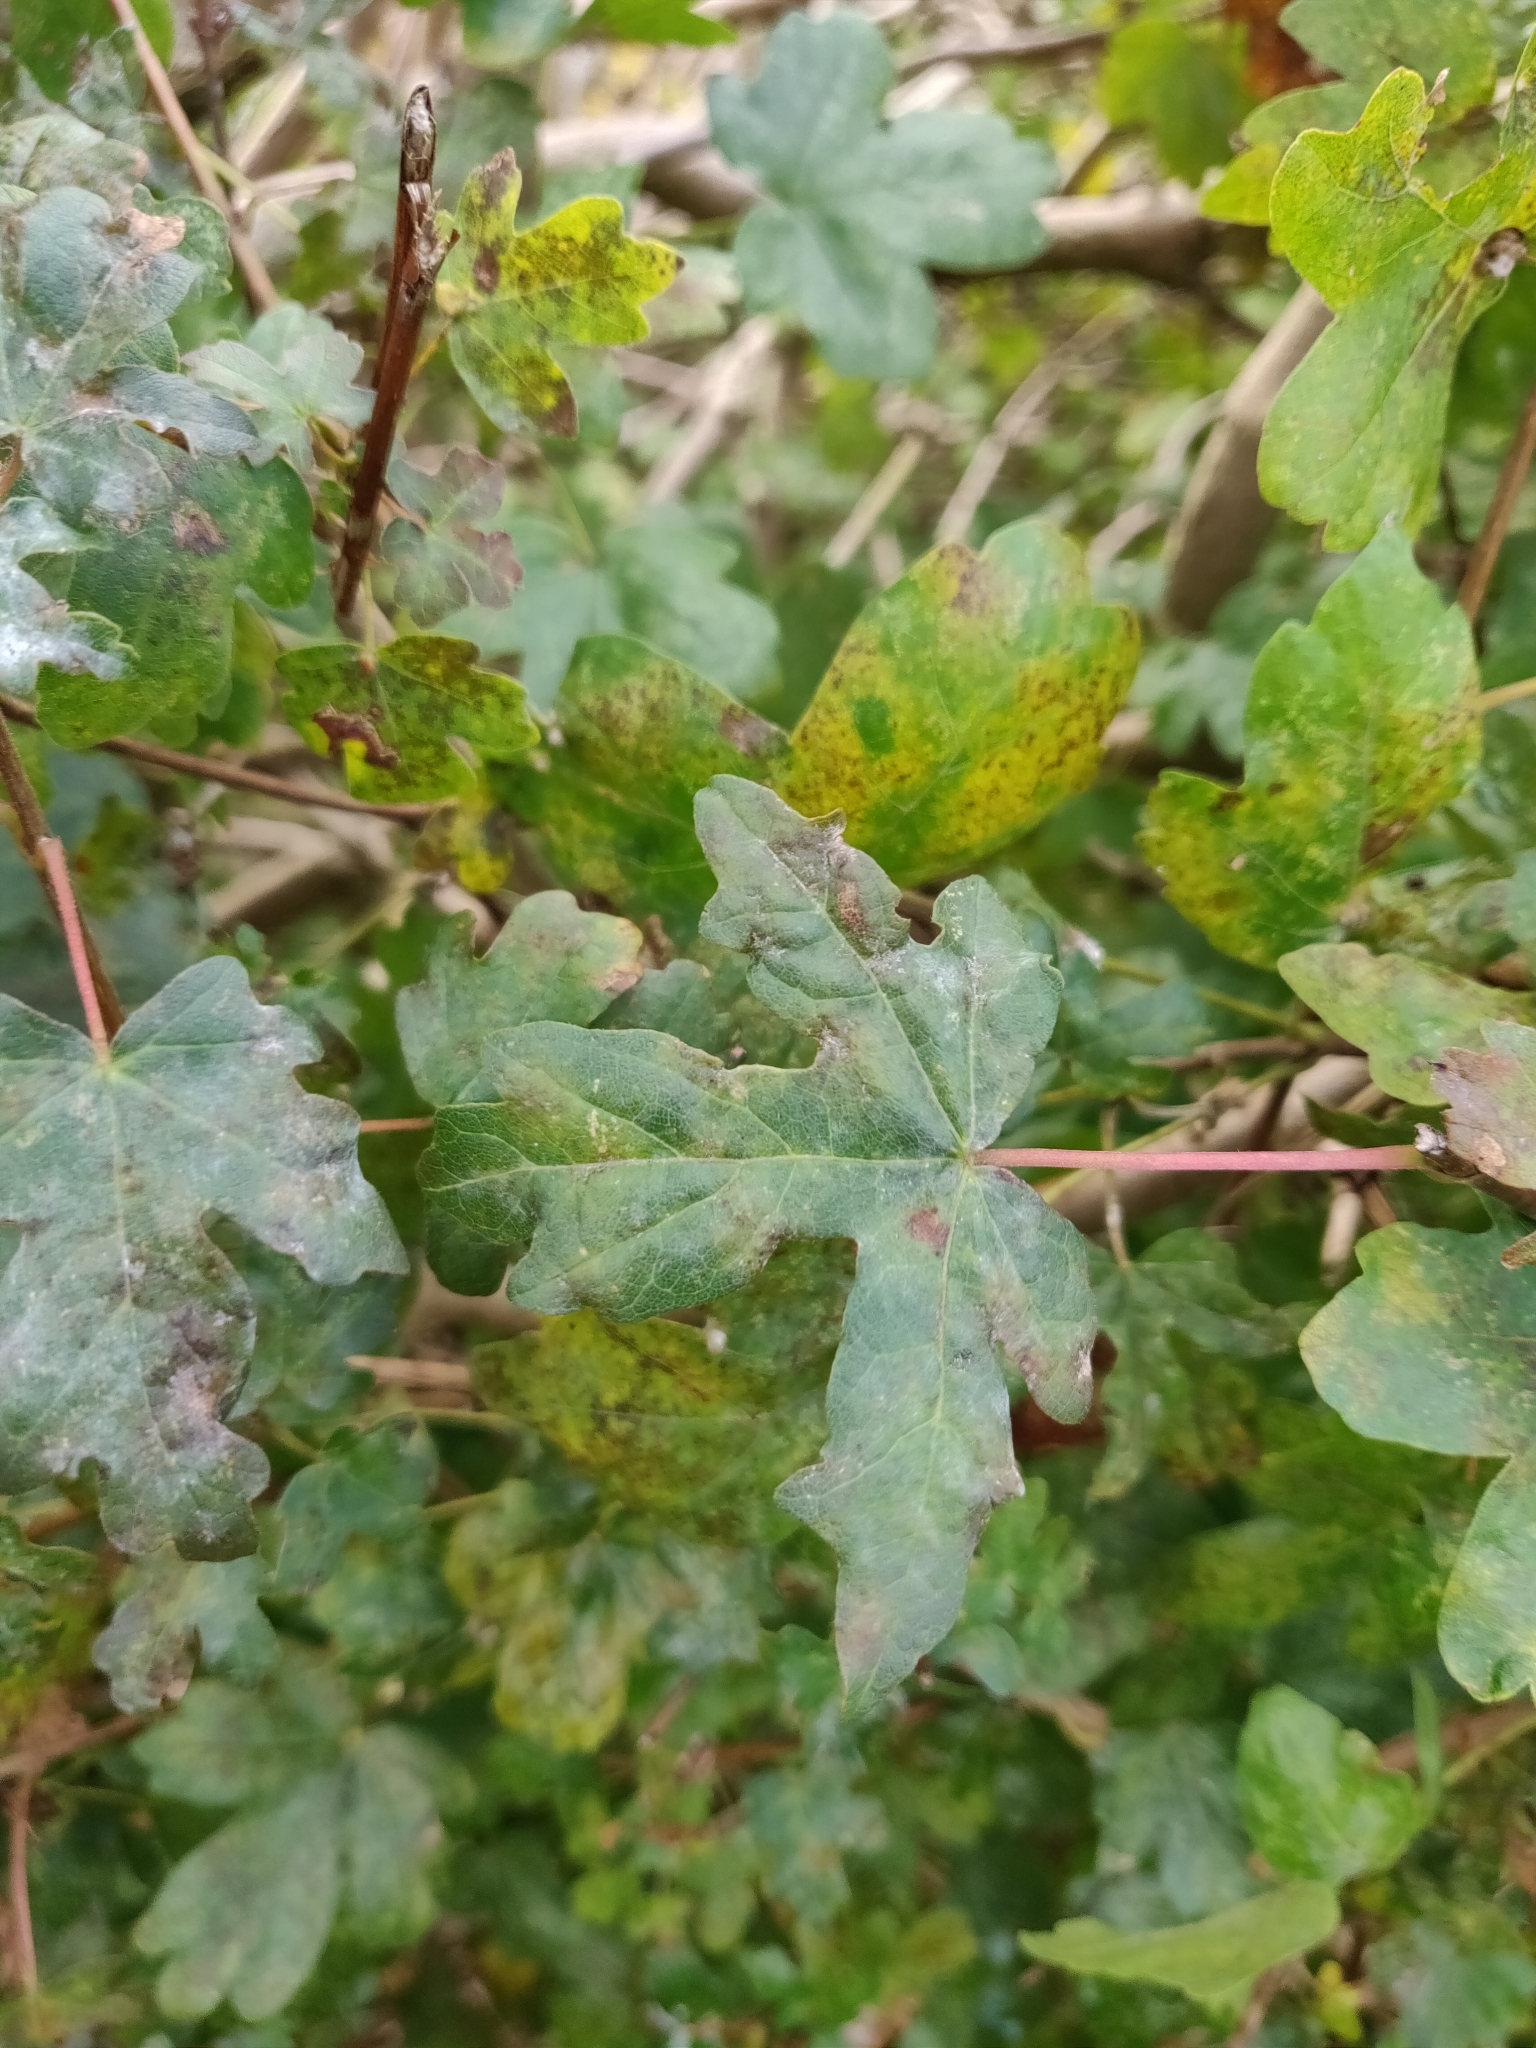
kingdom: Plantae
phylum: Tracheophyta
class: Magnoliopsida
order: Sapindales
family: Sapindaceae
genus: Acer
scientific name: Acer campestre
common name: Field maple
